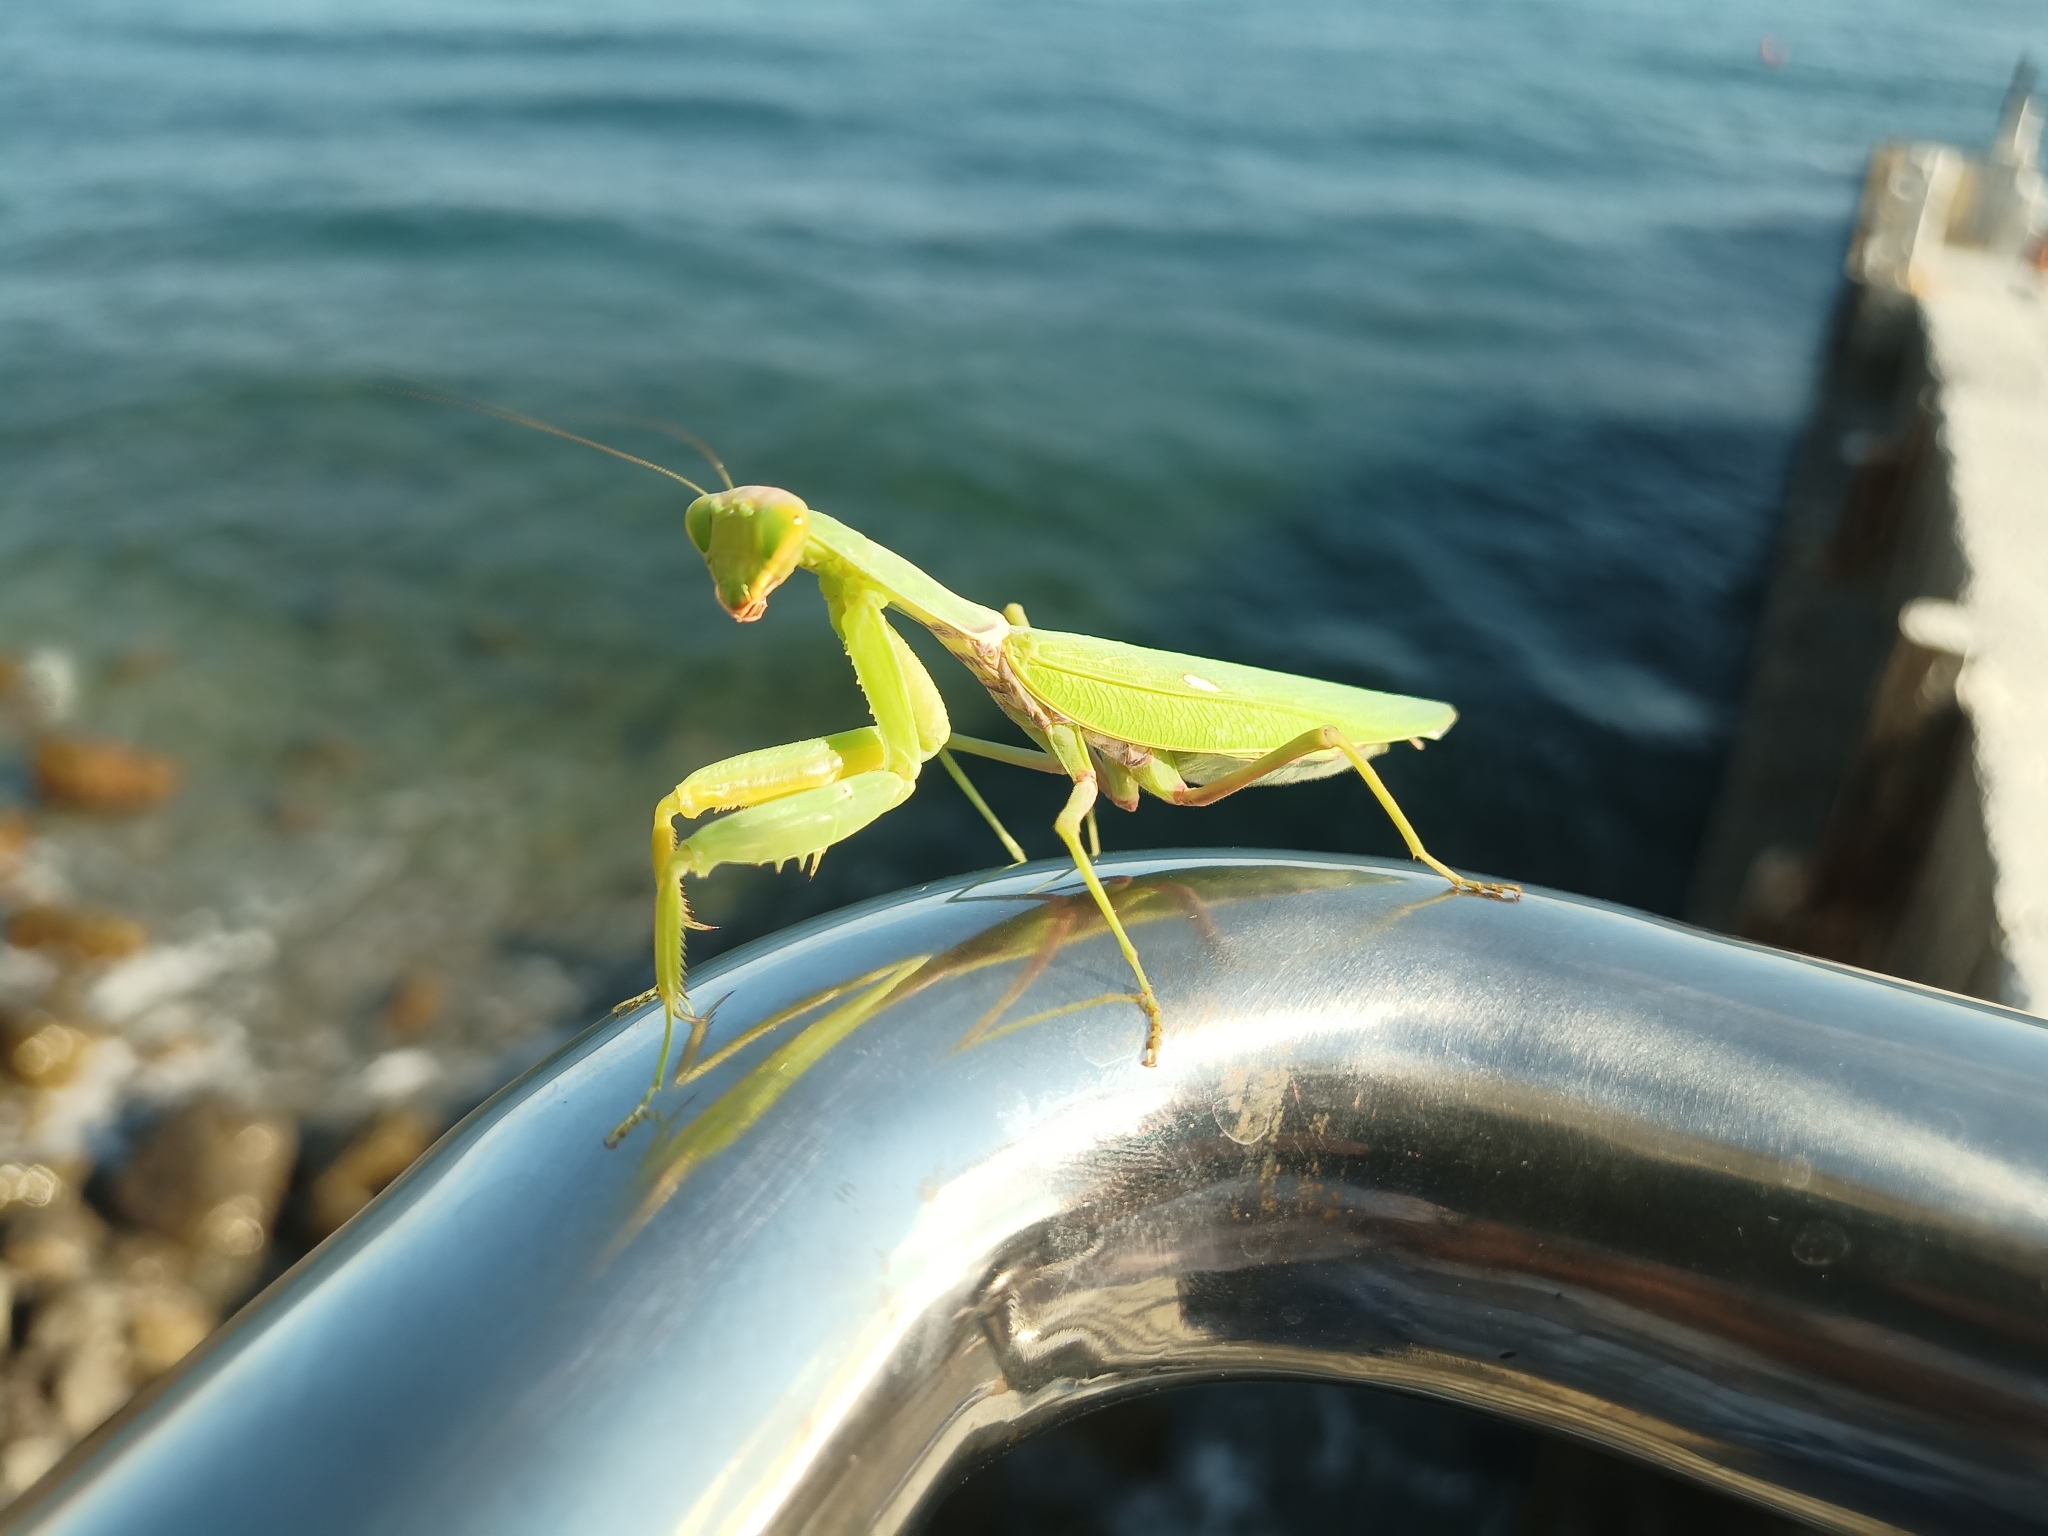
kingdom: Animalia
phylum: Arthropoda
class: Insecta
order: Mantodea
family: Mantidae
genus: Hierodula
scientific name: Hierodula transcaucasica
